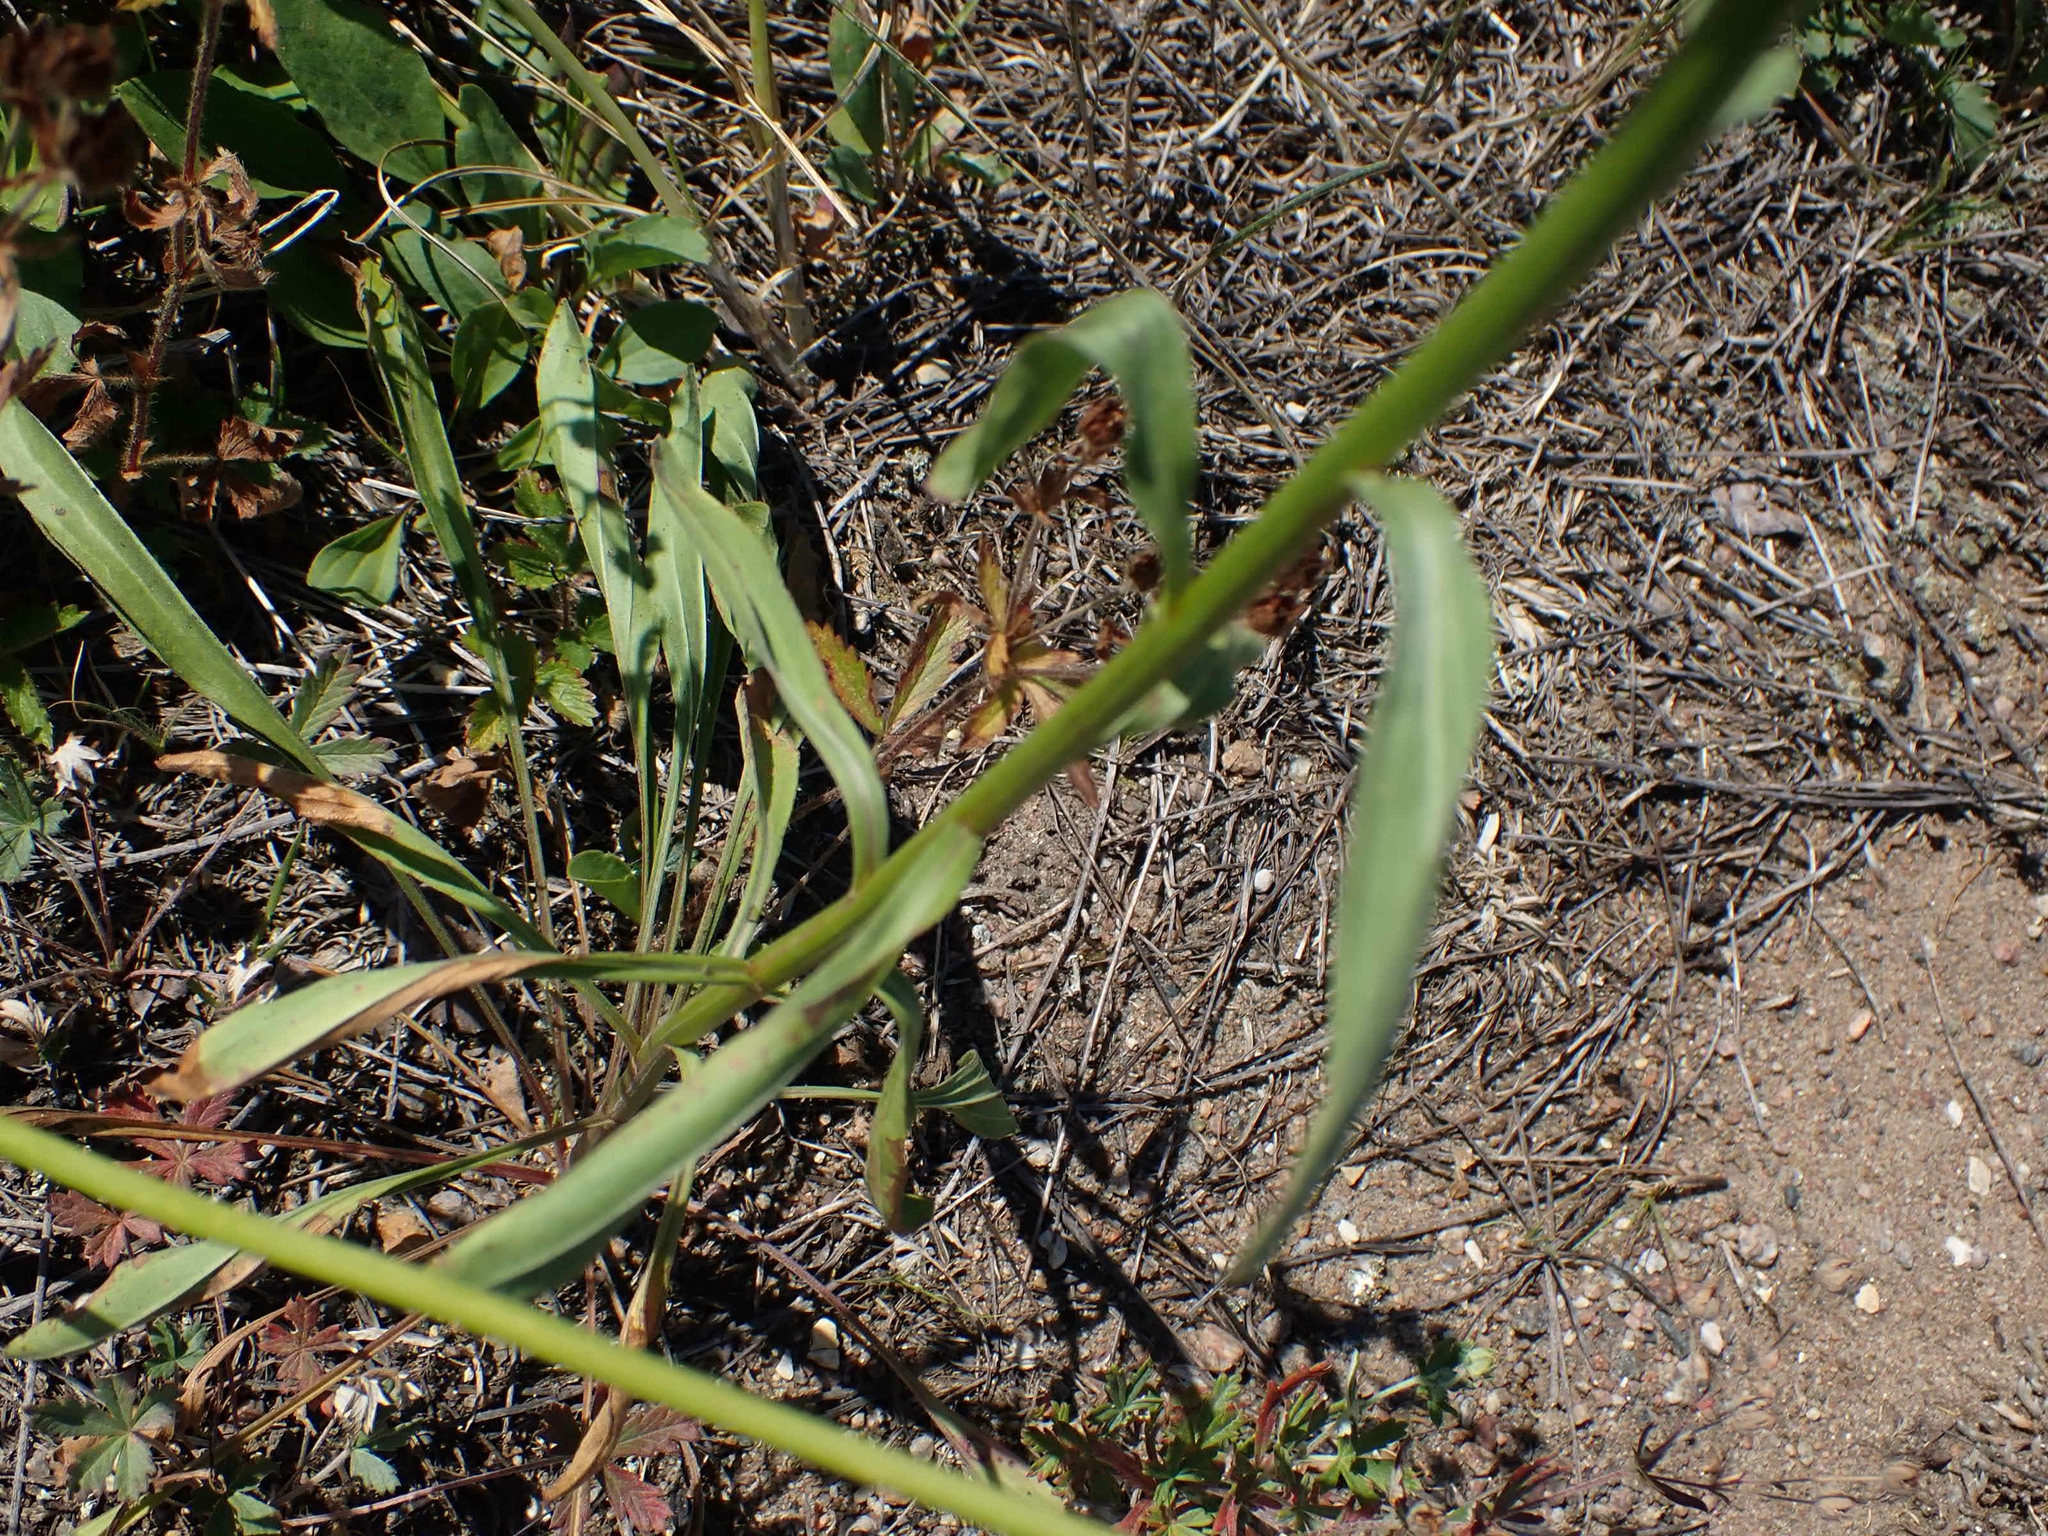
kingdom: Plantae
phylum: Tracheophyta
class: Magnoliopsida
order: Asterales
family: Asteraceae
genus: Erigeron
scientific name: Erigeron strigosus
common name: Common eastern fleabane
